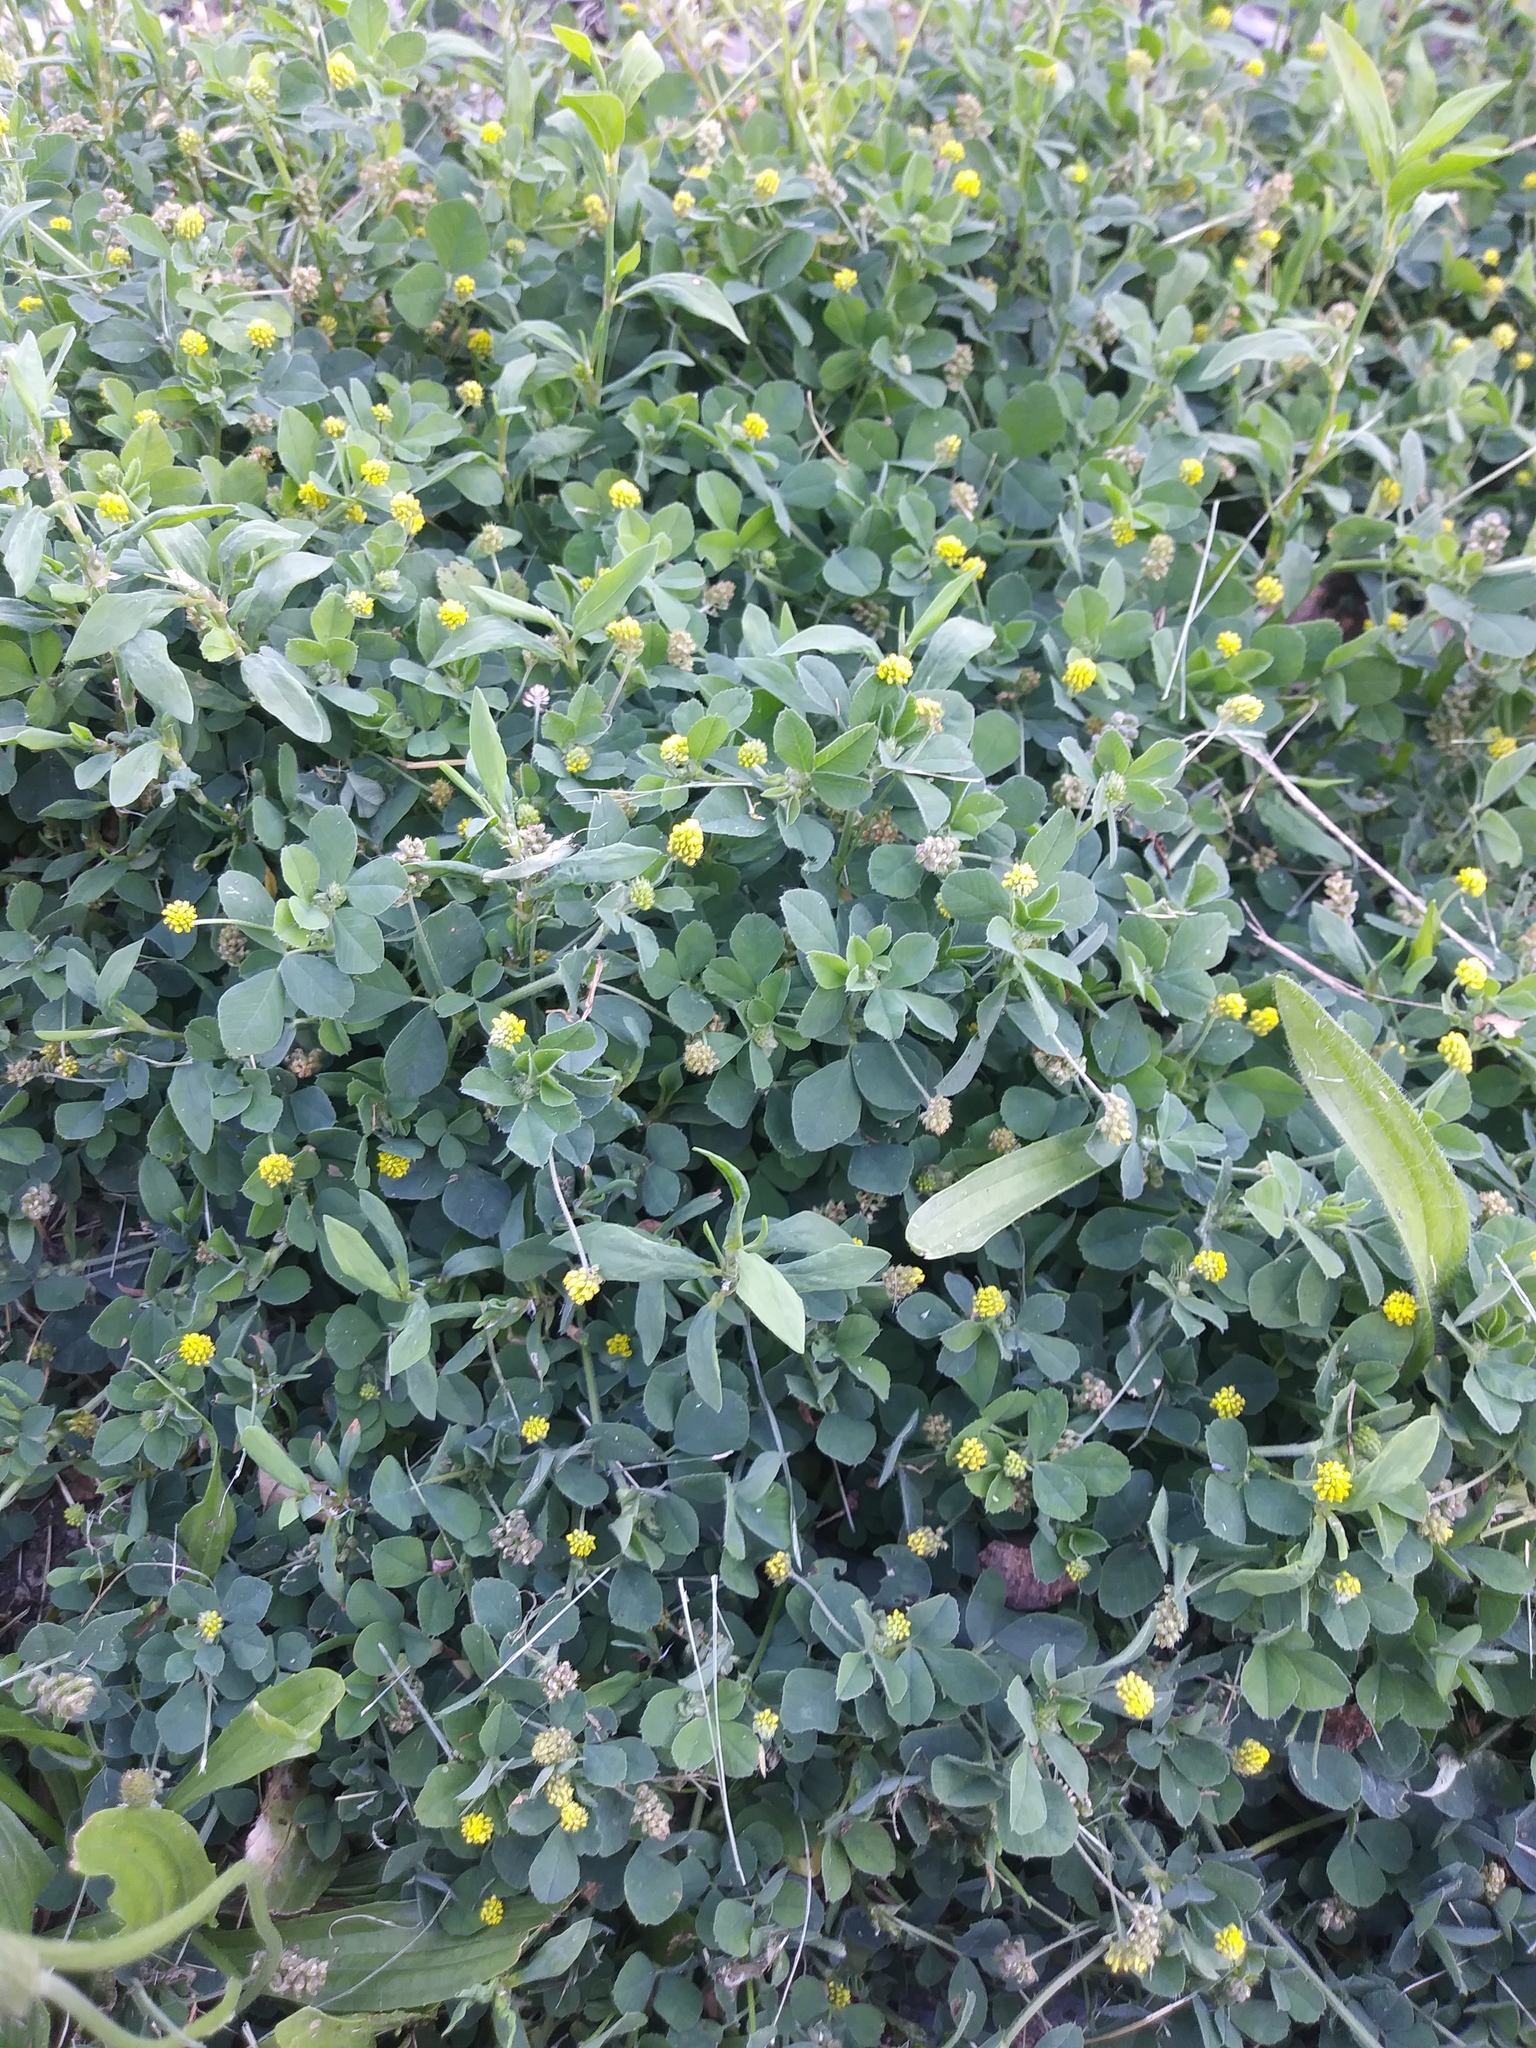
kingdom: Plantae
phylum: Tracheophyta
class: Magnoliopsida
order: Fabales
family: Fabaceae
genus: Medicago
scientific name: Medicago lupulina
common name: Black medick
